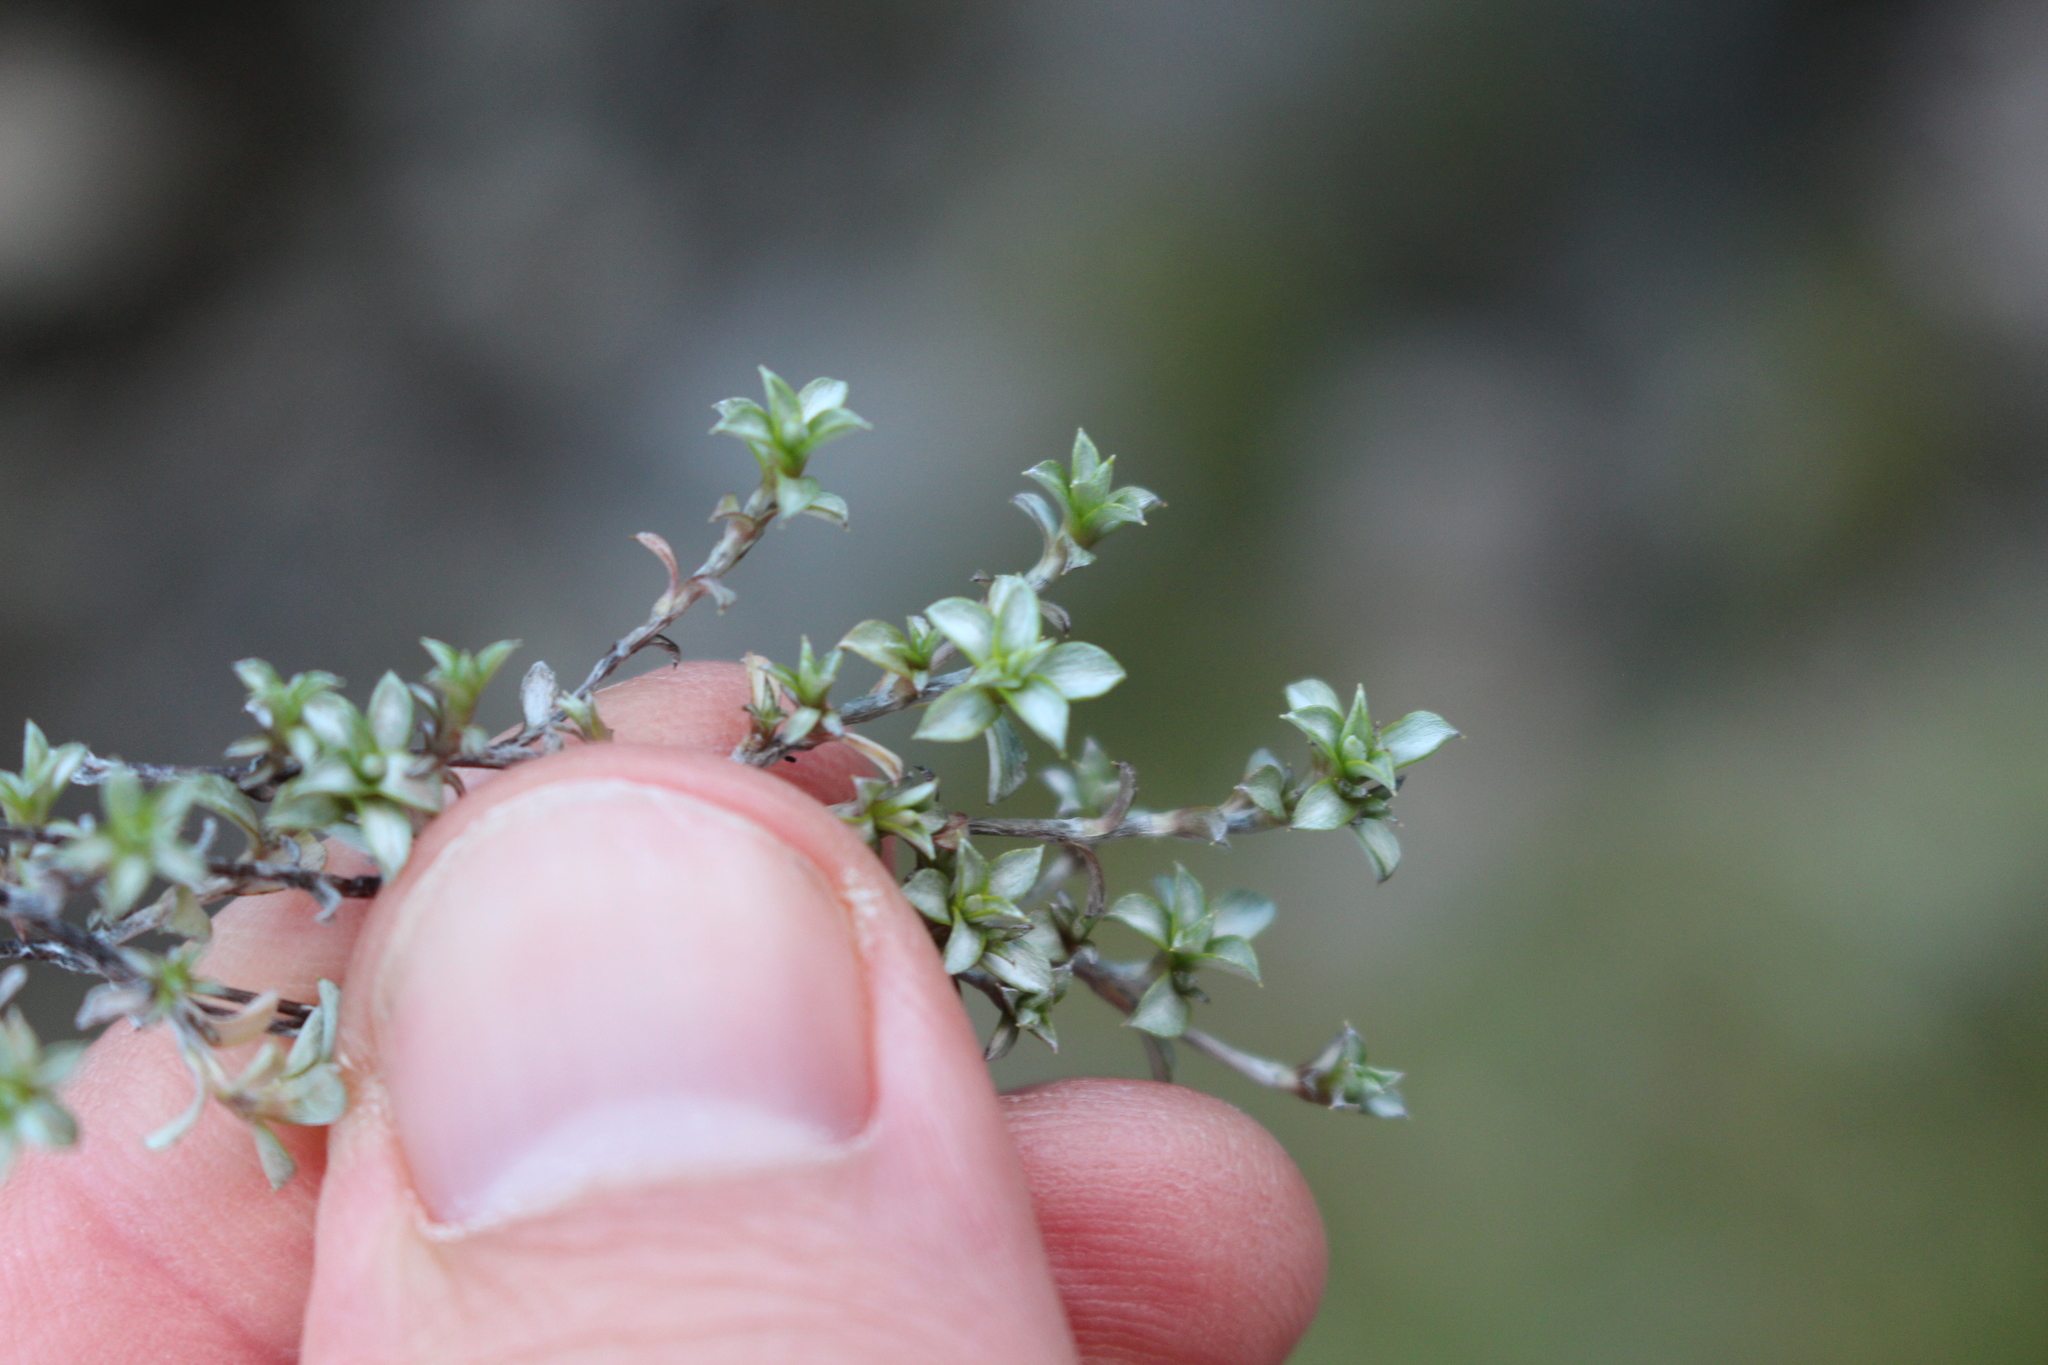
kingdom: Plantae
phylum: Tracheophyta
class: Magnoliopsida
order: Asterales
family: Asteraceae
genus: Raoulia
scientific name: Raoulia tenuicaulis
